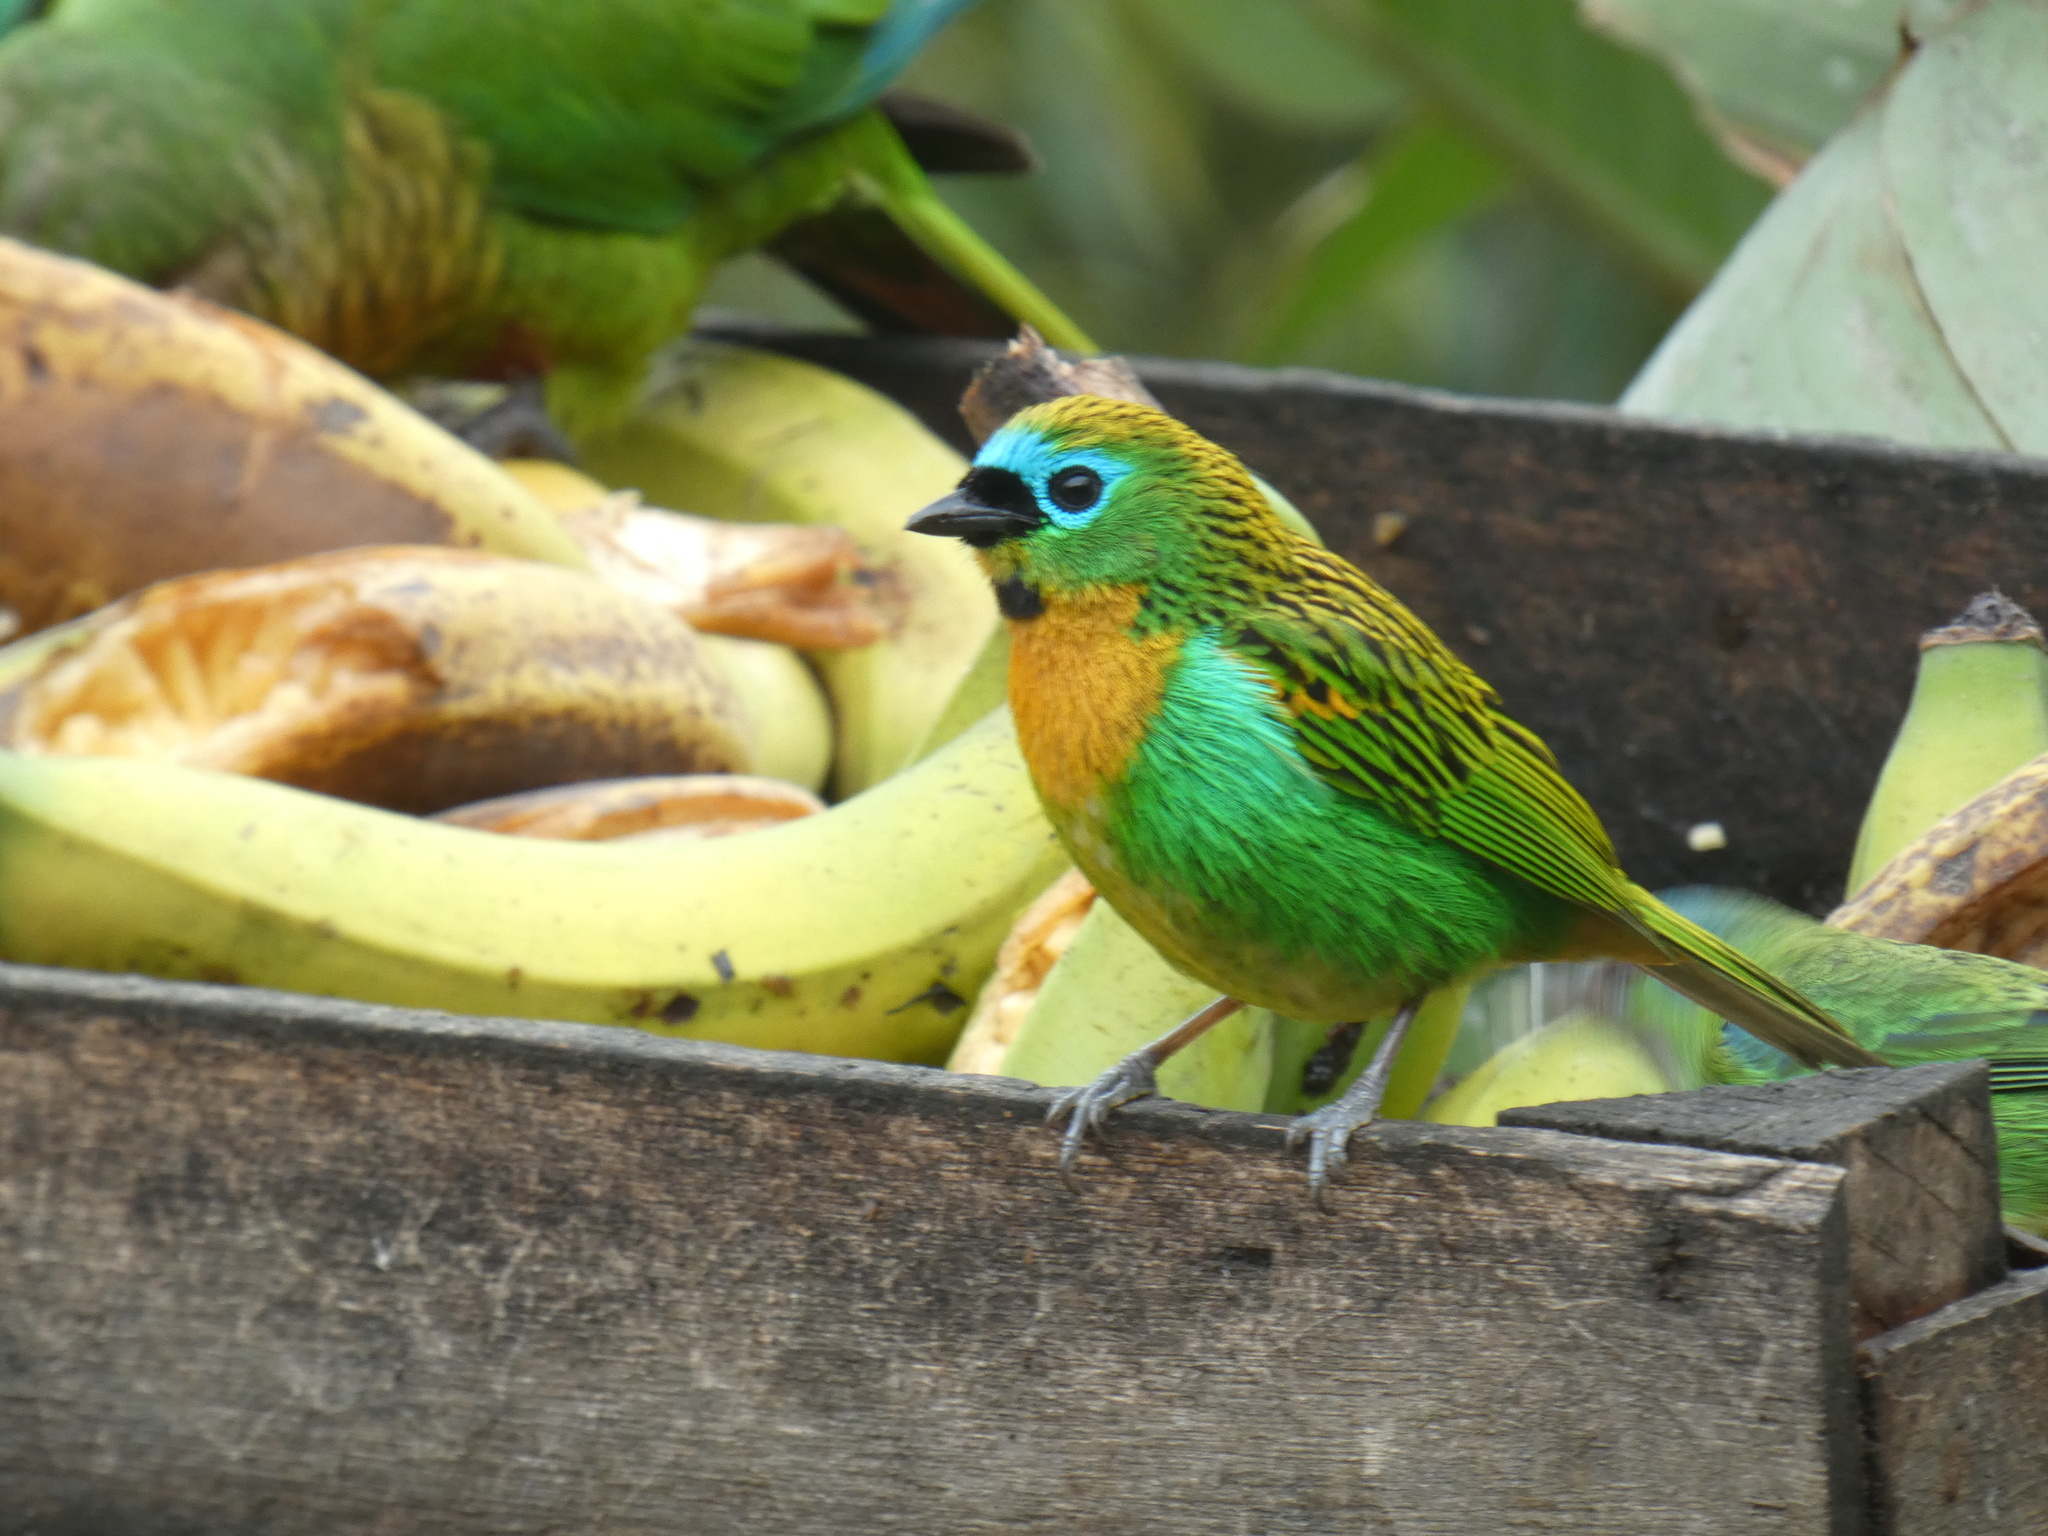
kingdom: Animalia
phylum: Chordata
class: Aves
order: Passeriformes
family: Thraupidae
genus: Tangara
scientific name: Tangara desmaresti
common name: Brassy-breasted tanager
